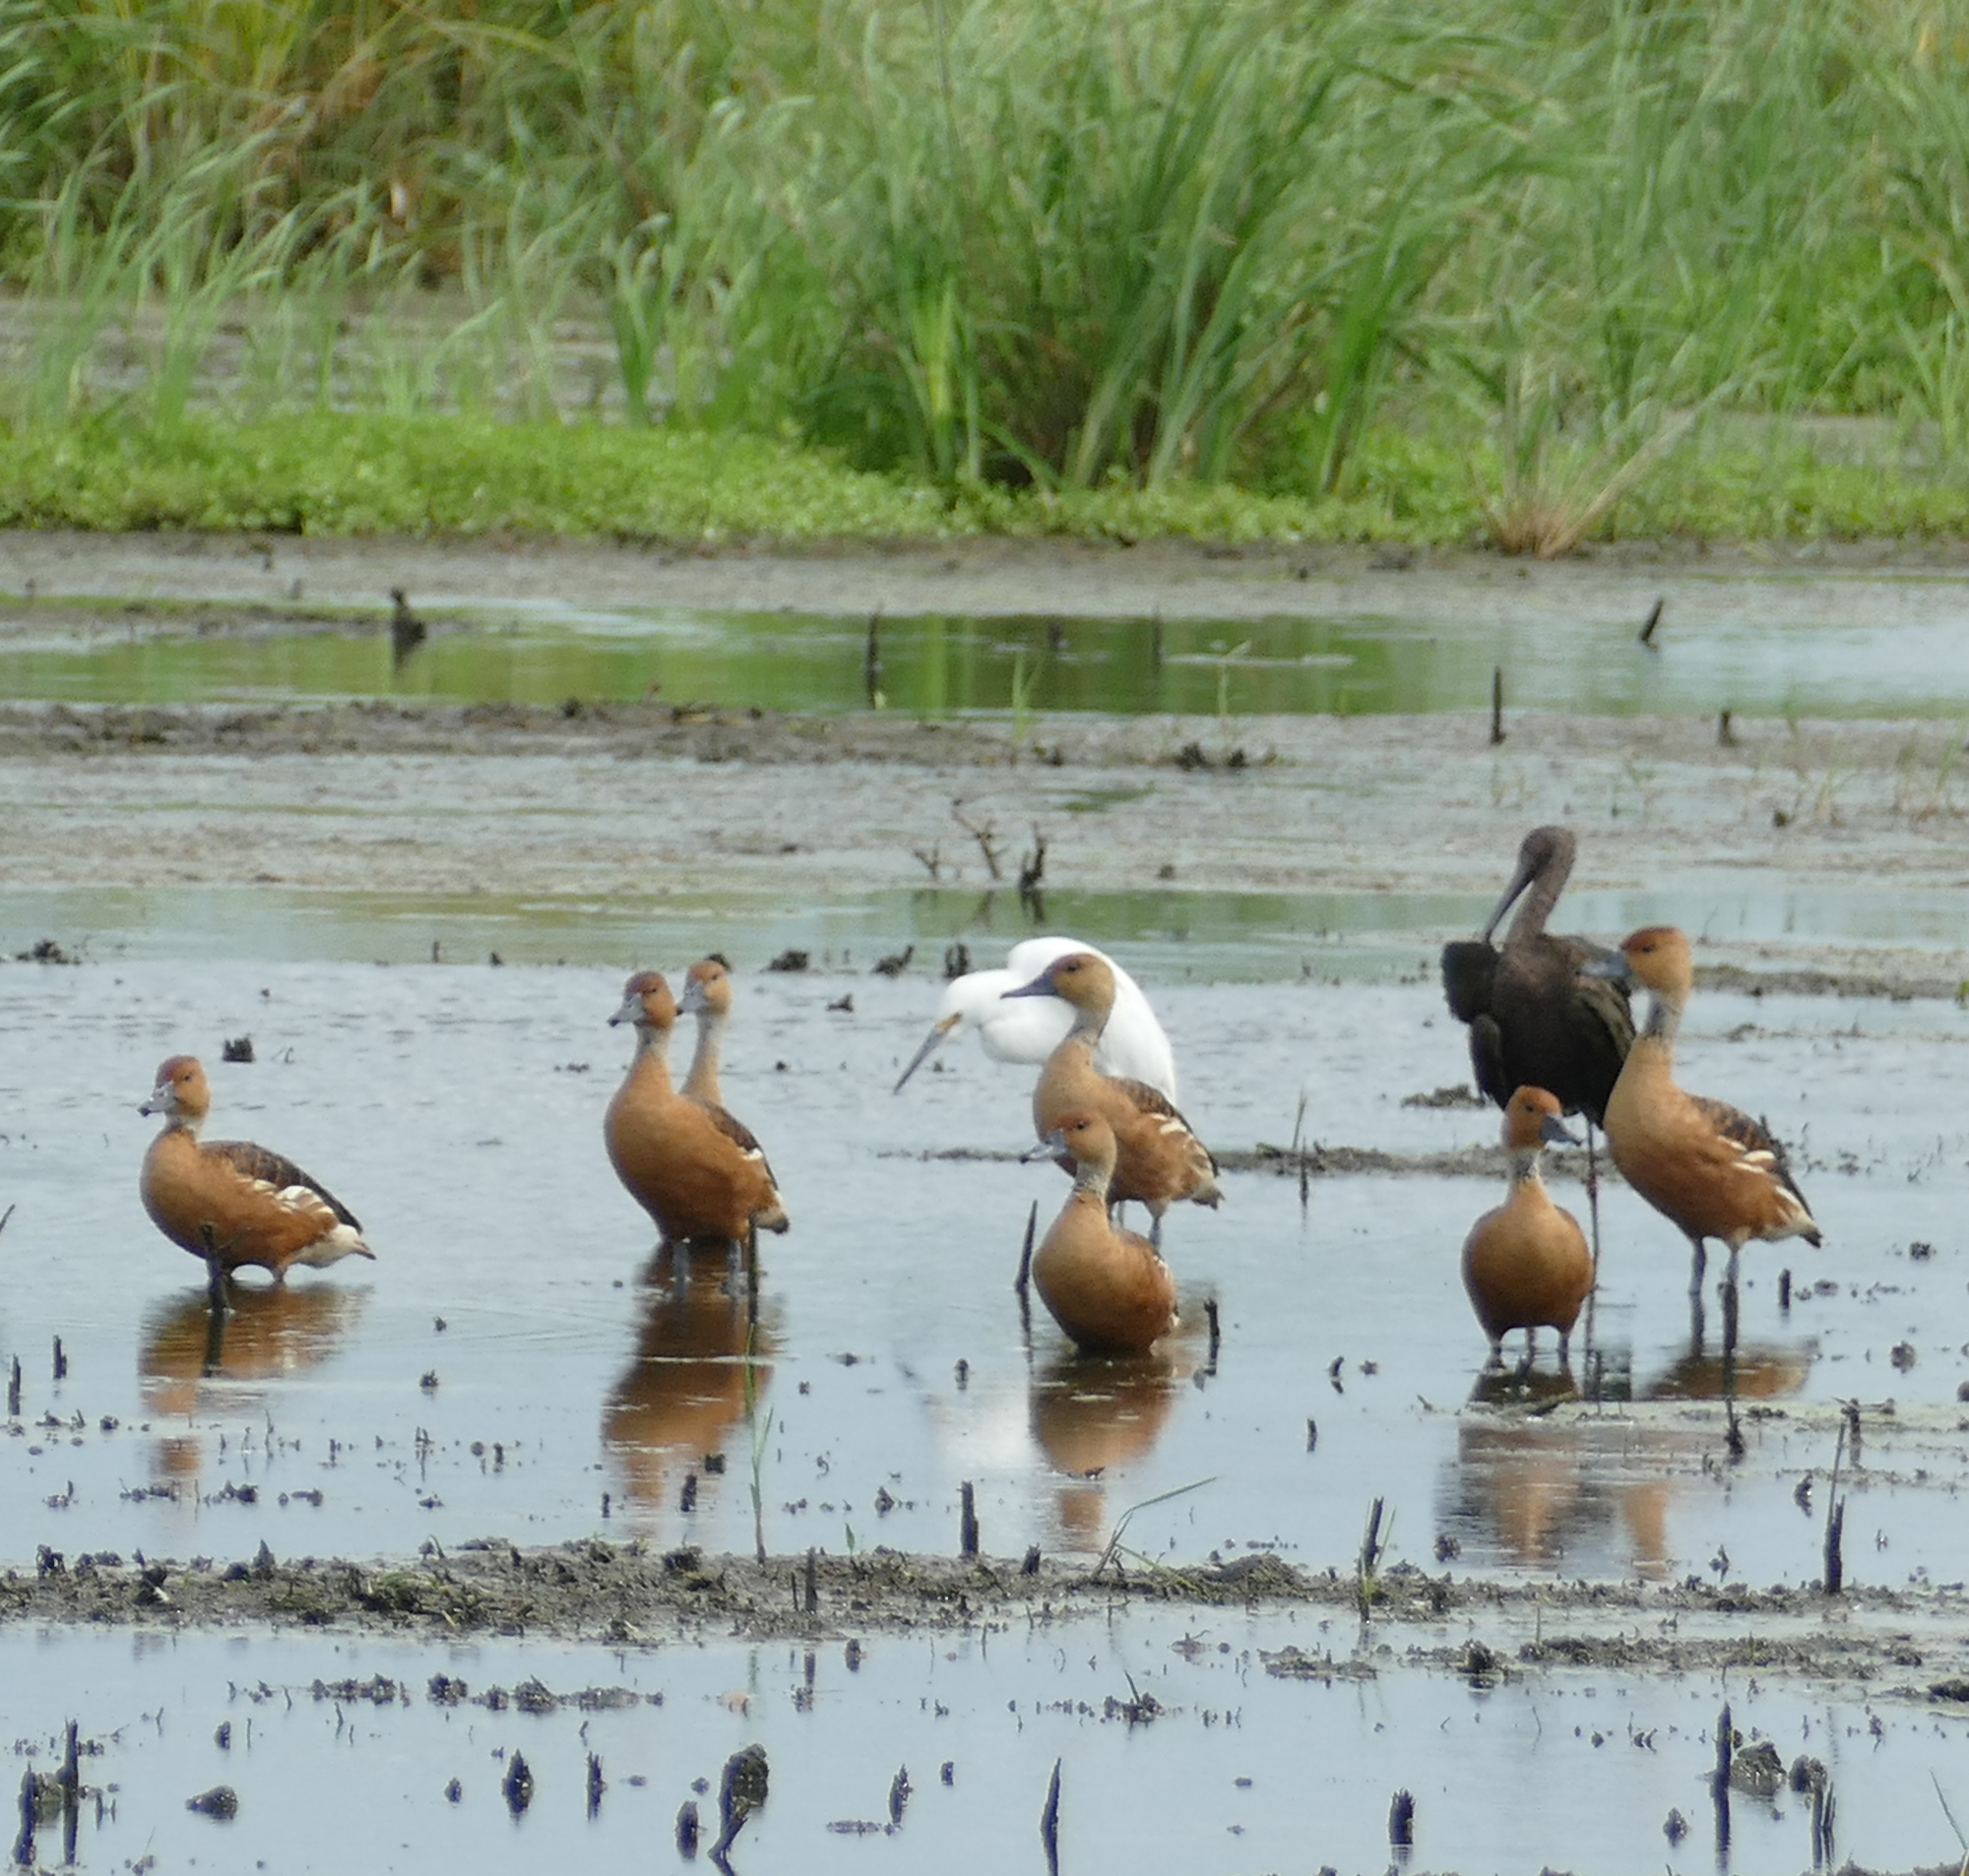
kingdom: Animalia
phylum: Chordata
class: Aves
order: Anseriformes
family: Anatidae
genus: Dendrocygna
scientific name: Dendrocygna bicolor
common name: Fulvous whistling duck
